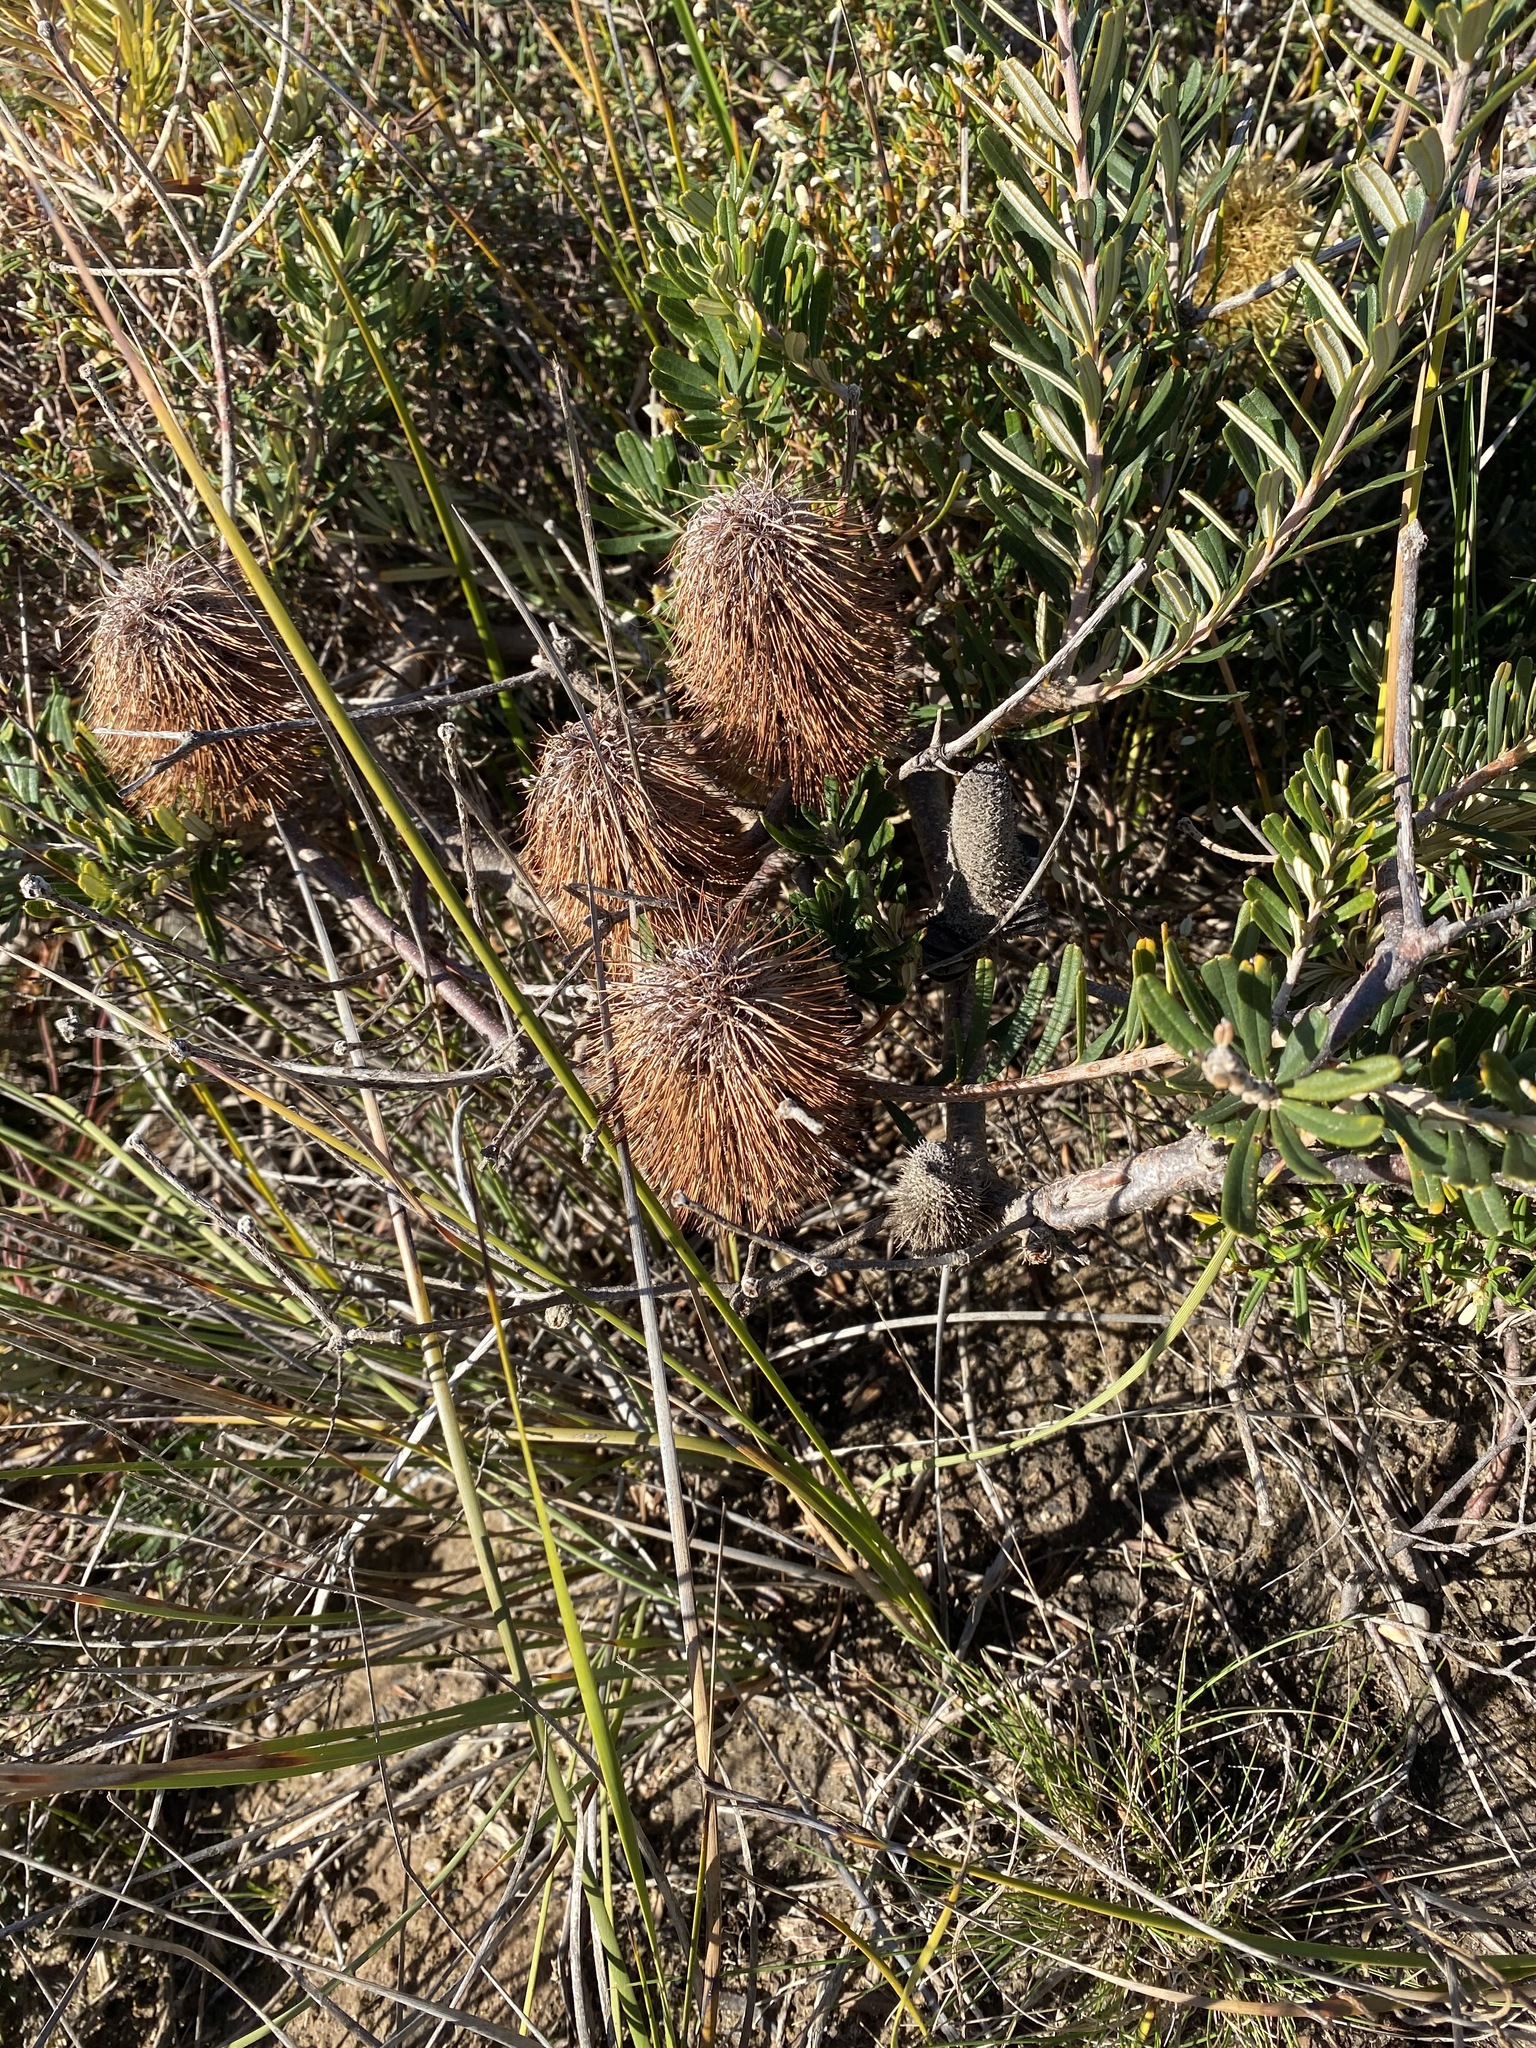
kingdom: Plantae
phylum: Tracheophyta
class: Magnoliopsida
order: Proteales
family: Proteaceae
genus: Banksia
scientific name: Banksia marginata
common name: Silver banksia
